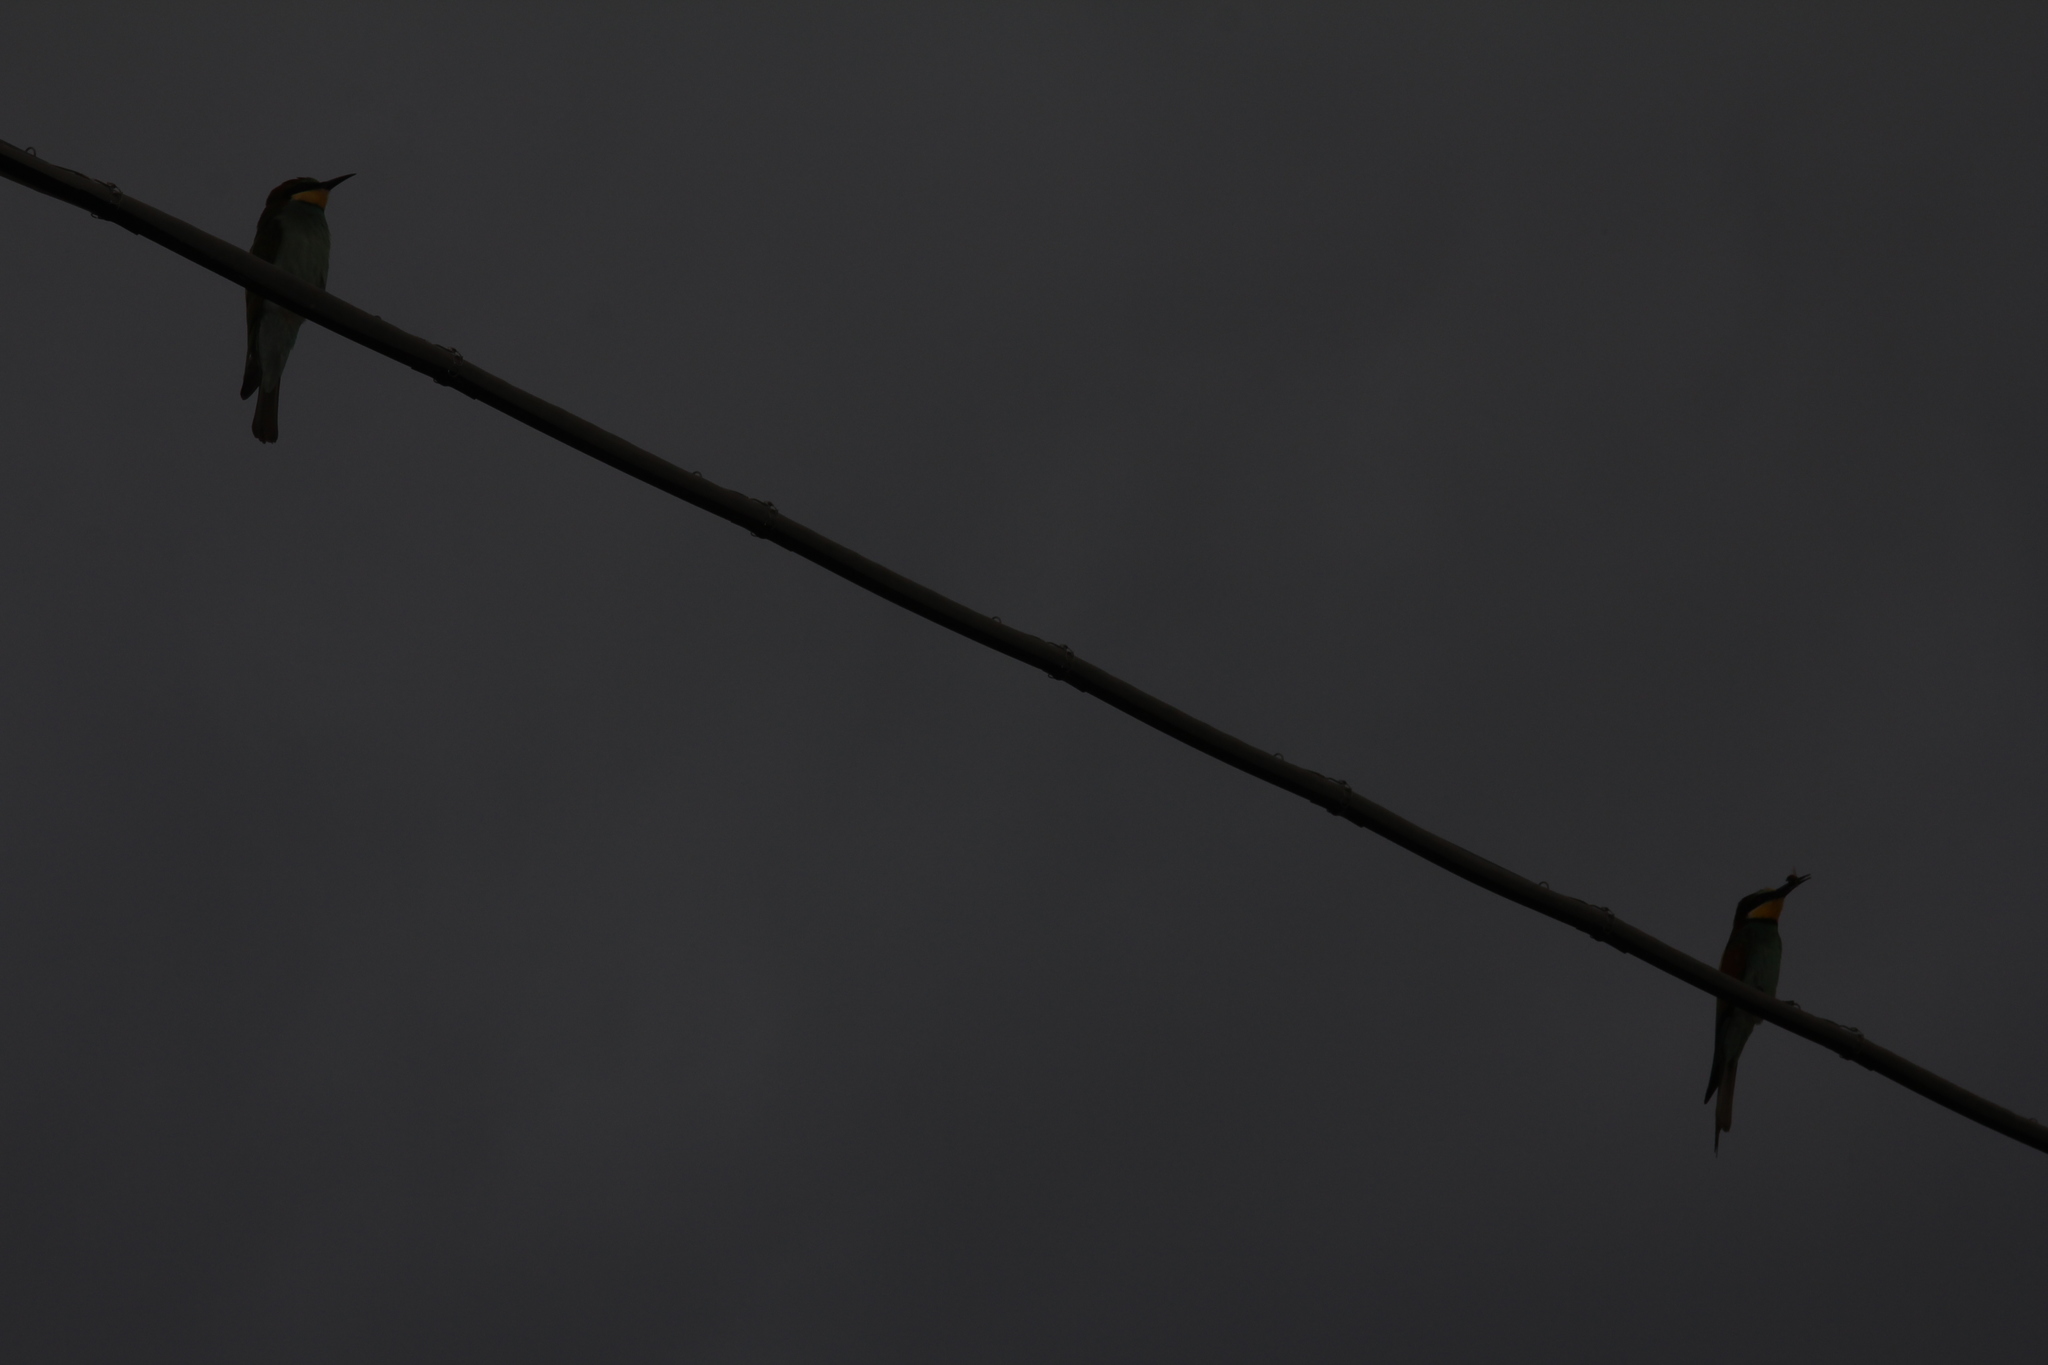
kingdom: Animalia
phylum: Chordata
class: Aves
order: Coraciiformes
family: Meropidae
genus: Merops
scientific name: Merops apiaster
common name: European bee-eater
